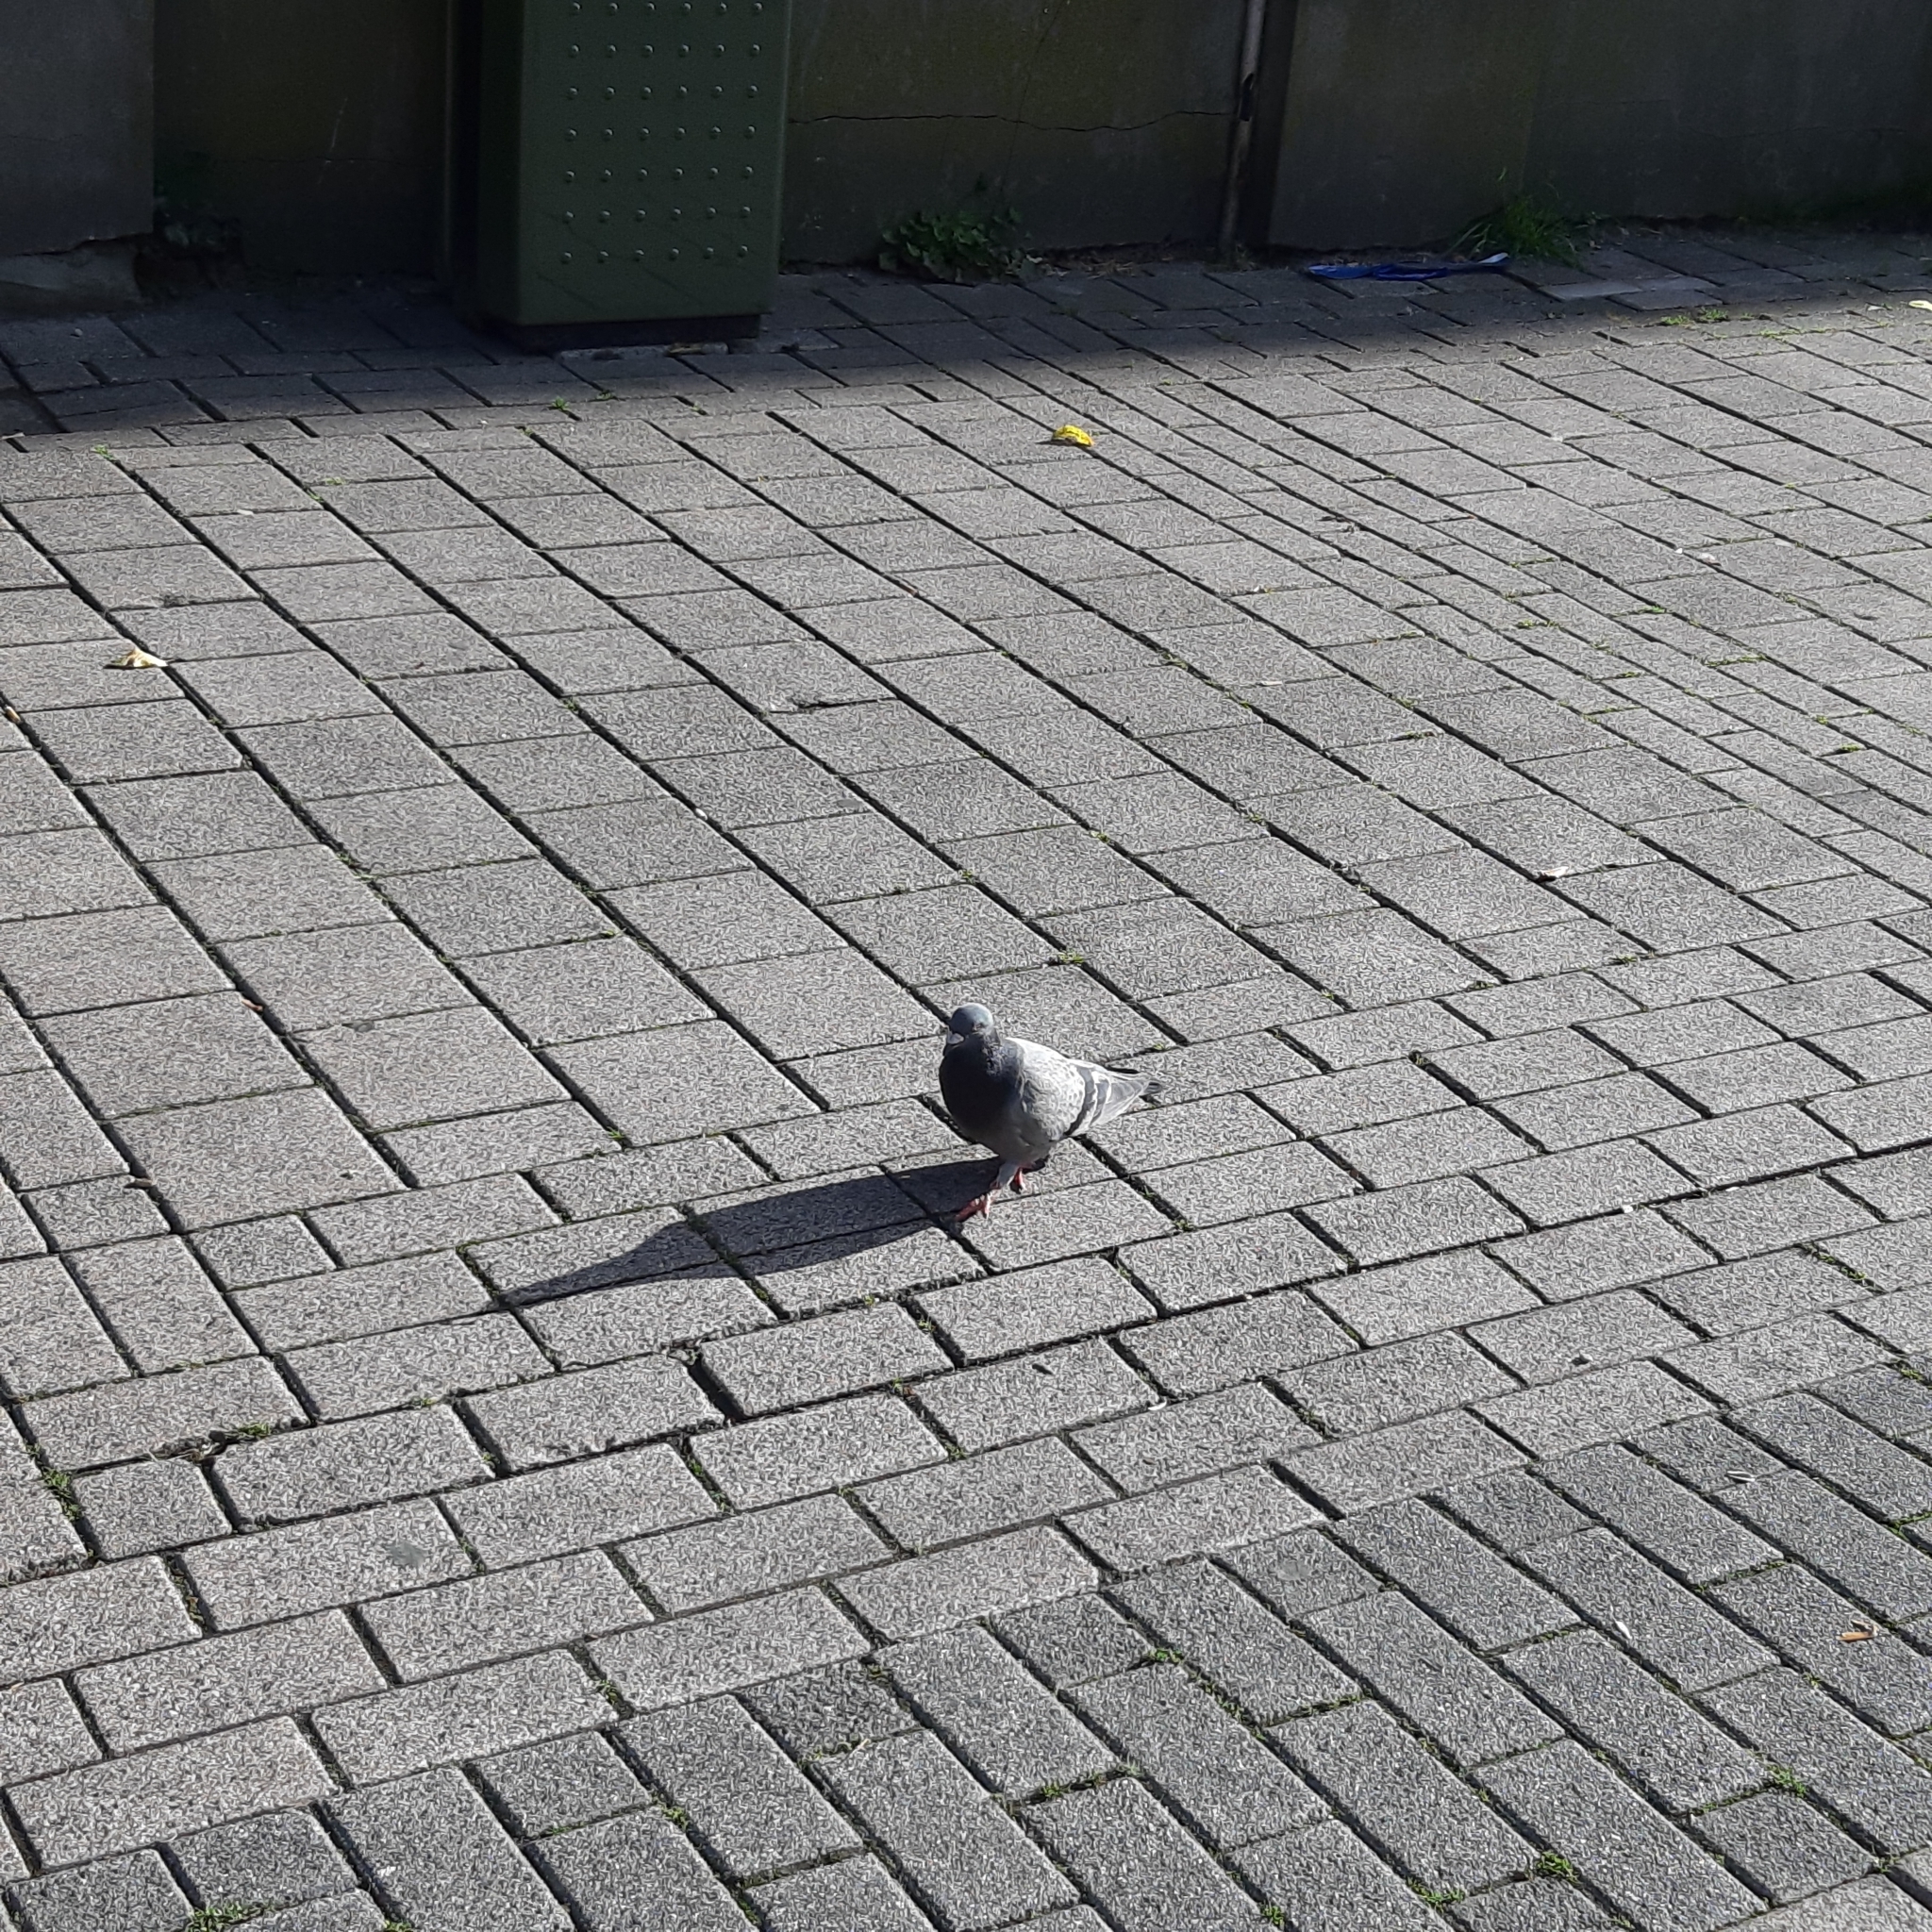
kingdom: Animalia
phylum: Chordata
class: Aves
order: Columbiformes
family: Columbidae
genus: Columba
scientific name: Columba livia
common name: Rock pigeon
